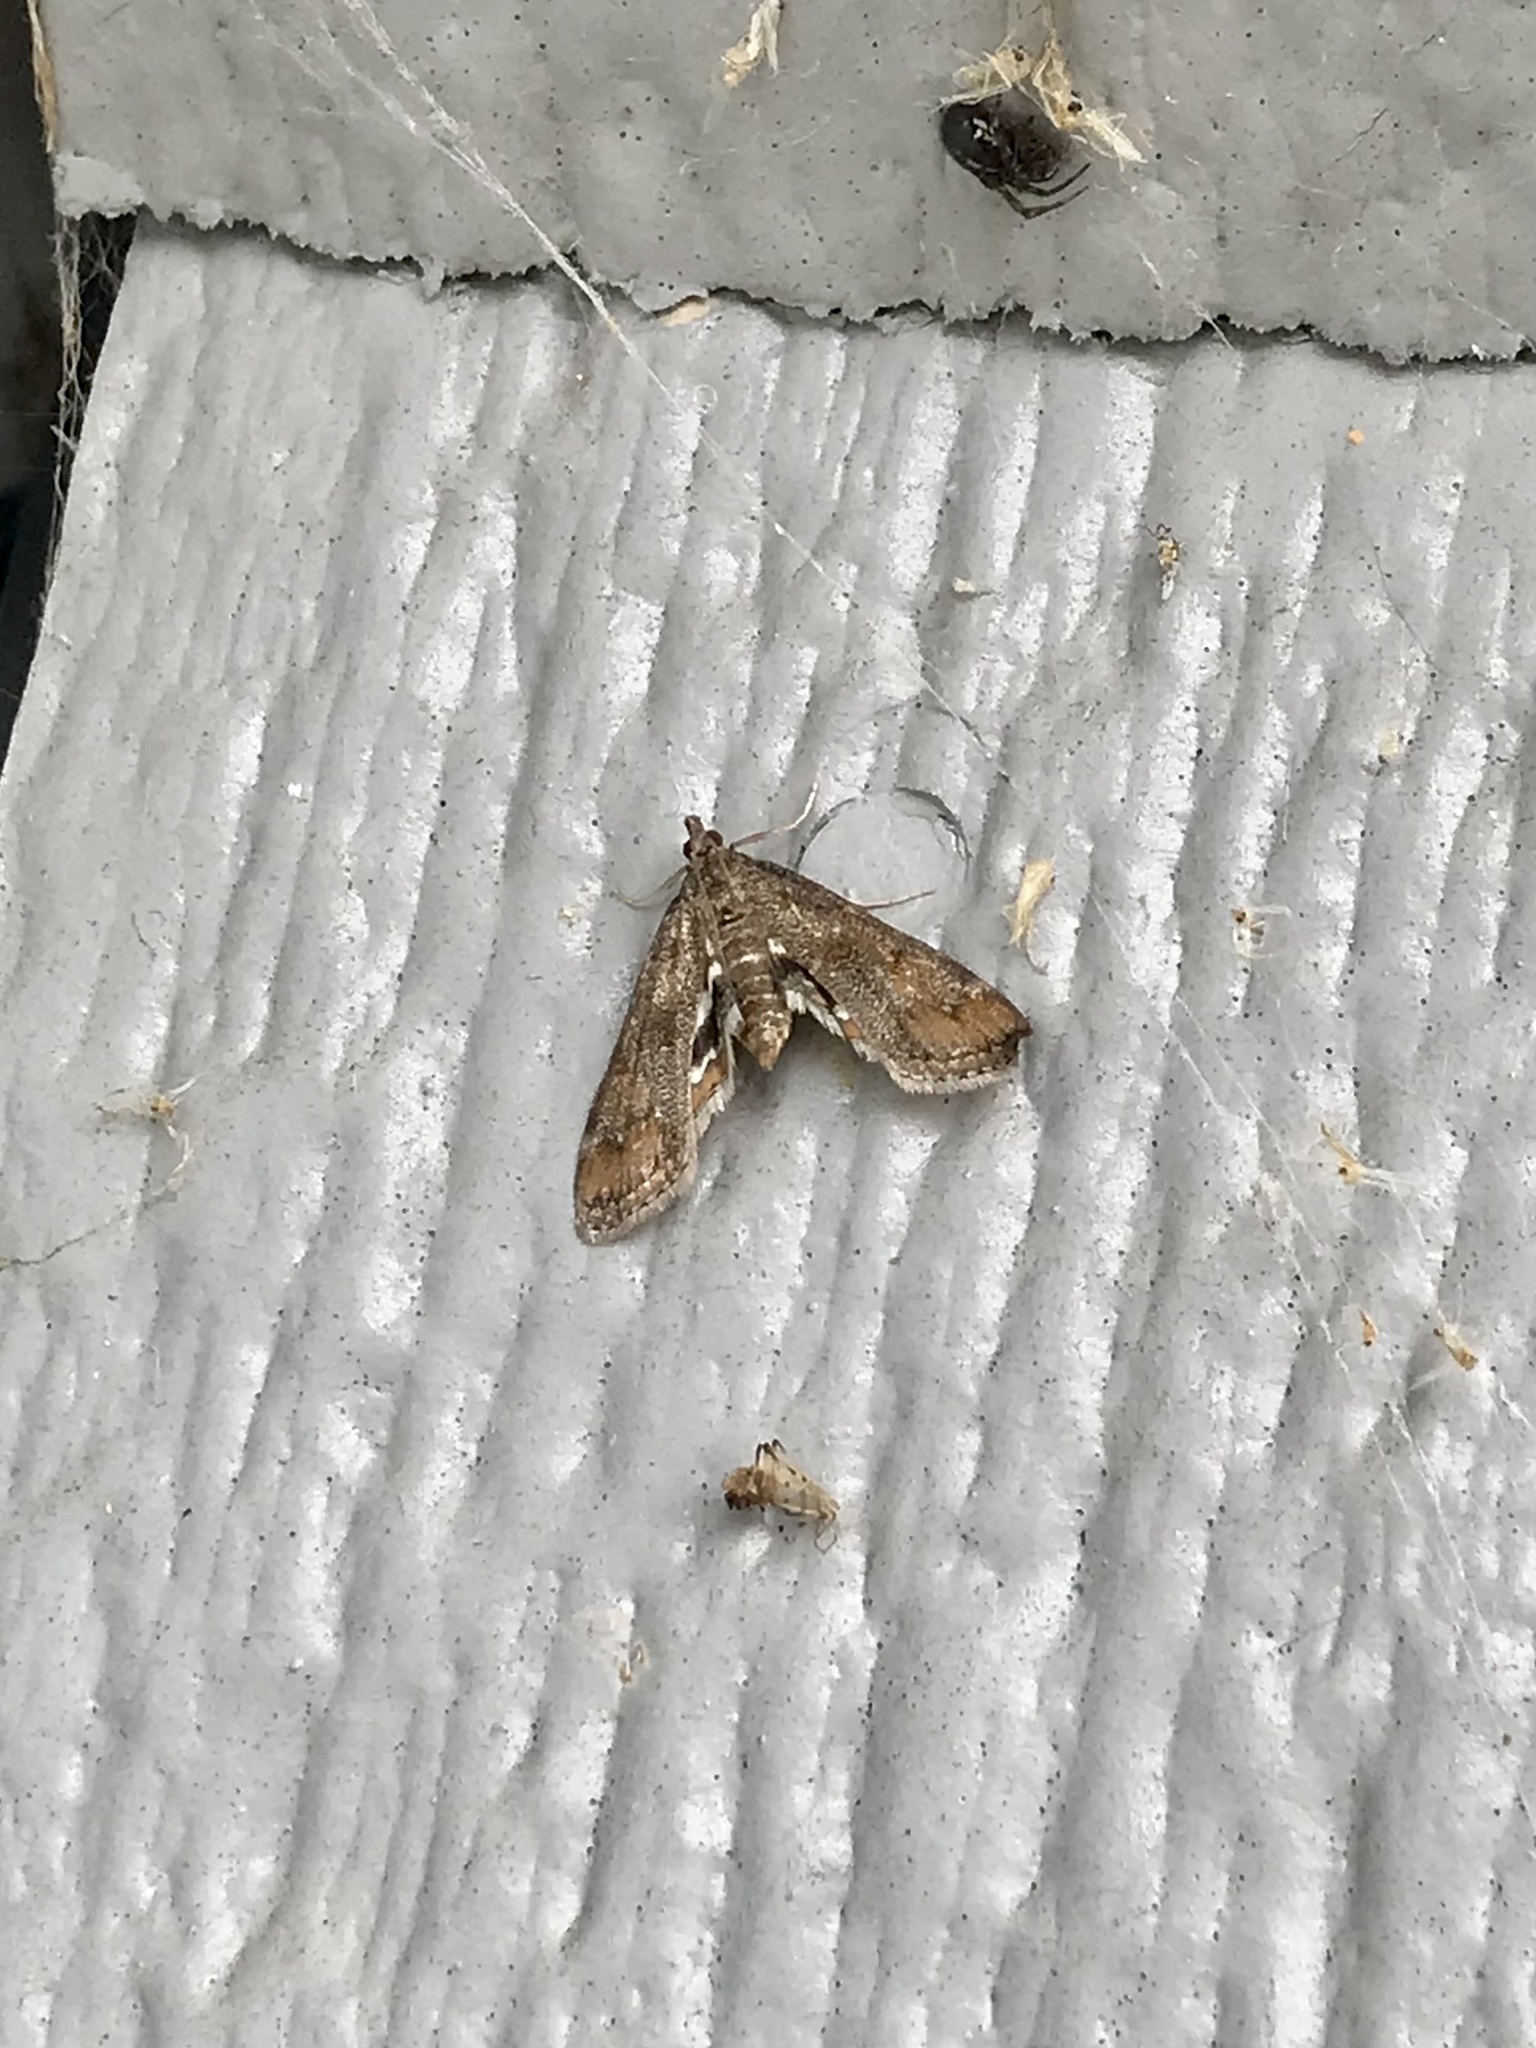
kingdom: Animalia
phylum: Arthropoda
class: Insecta
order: Lepidoptera
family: Crambidae
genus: Parapoynx
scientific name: Parapoynx obscuralis
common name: American china-mark
